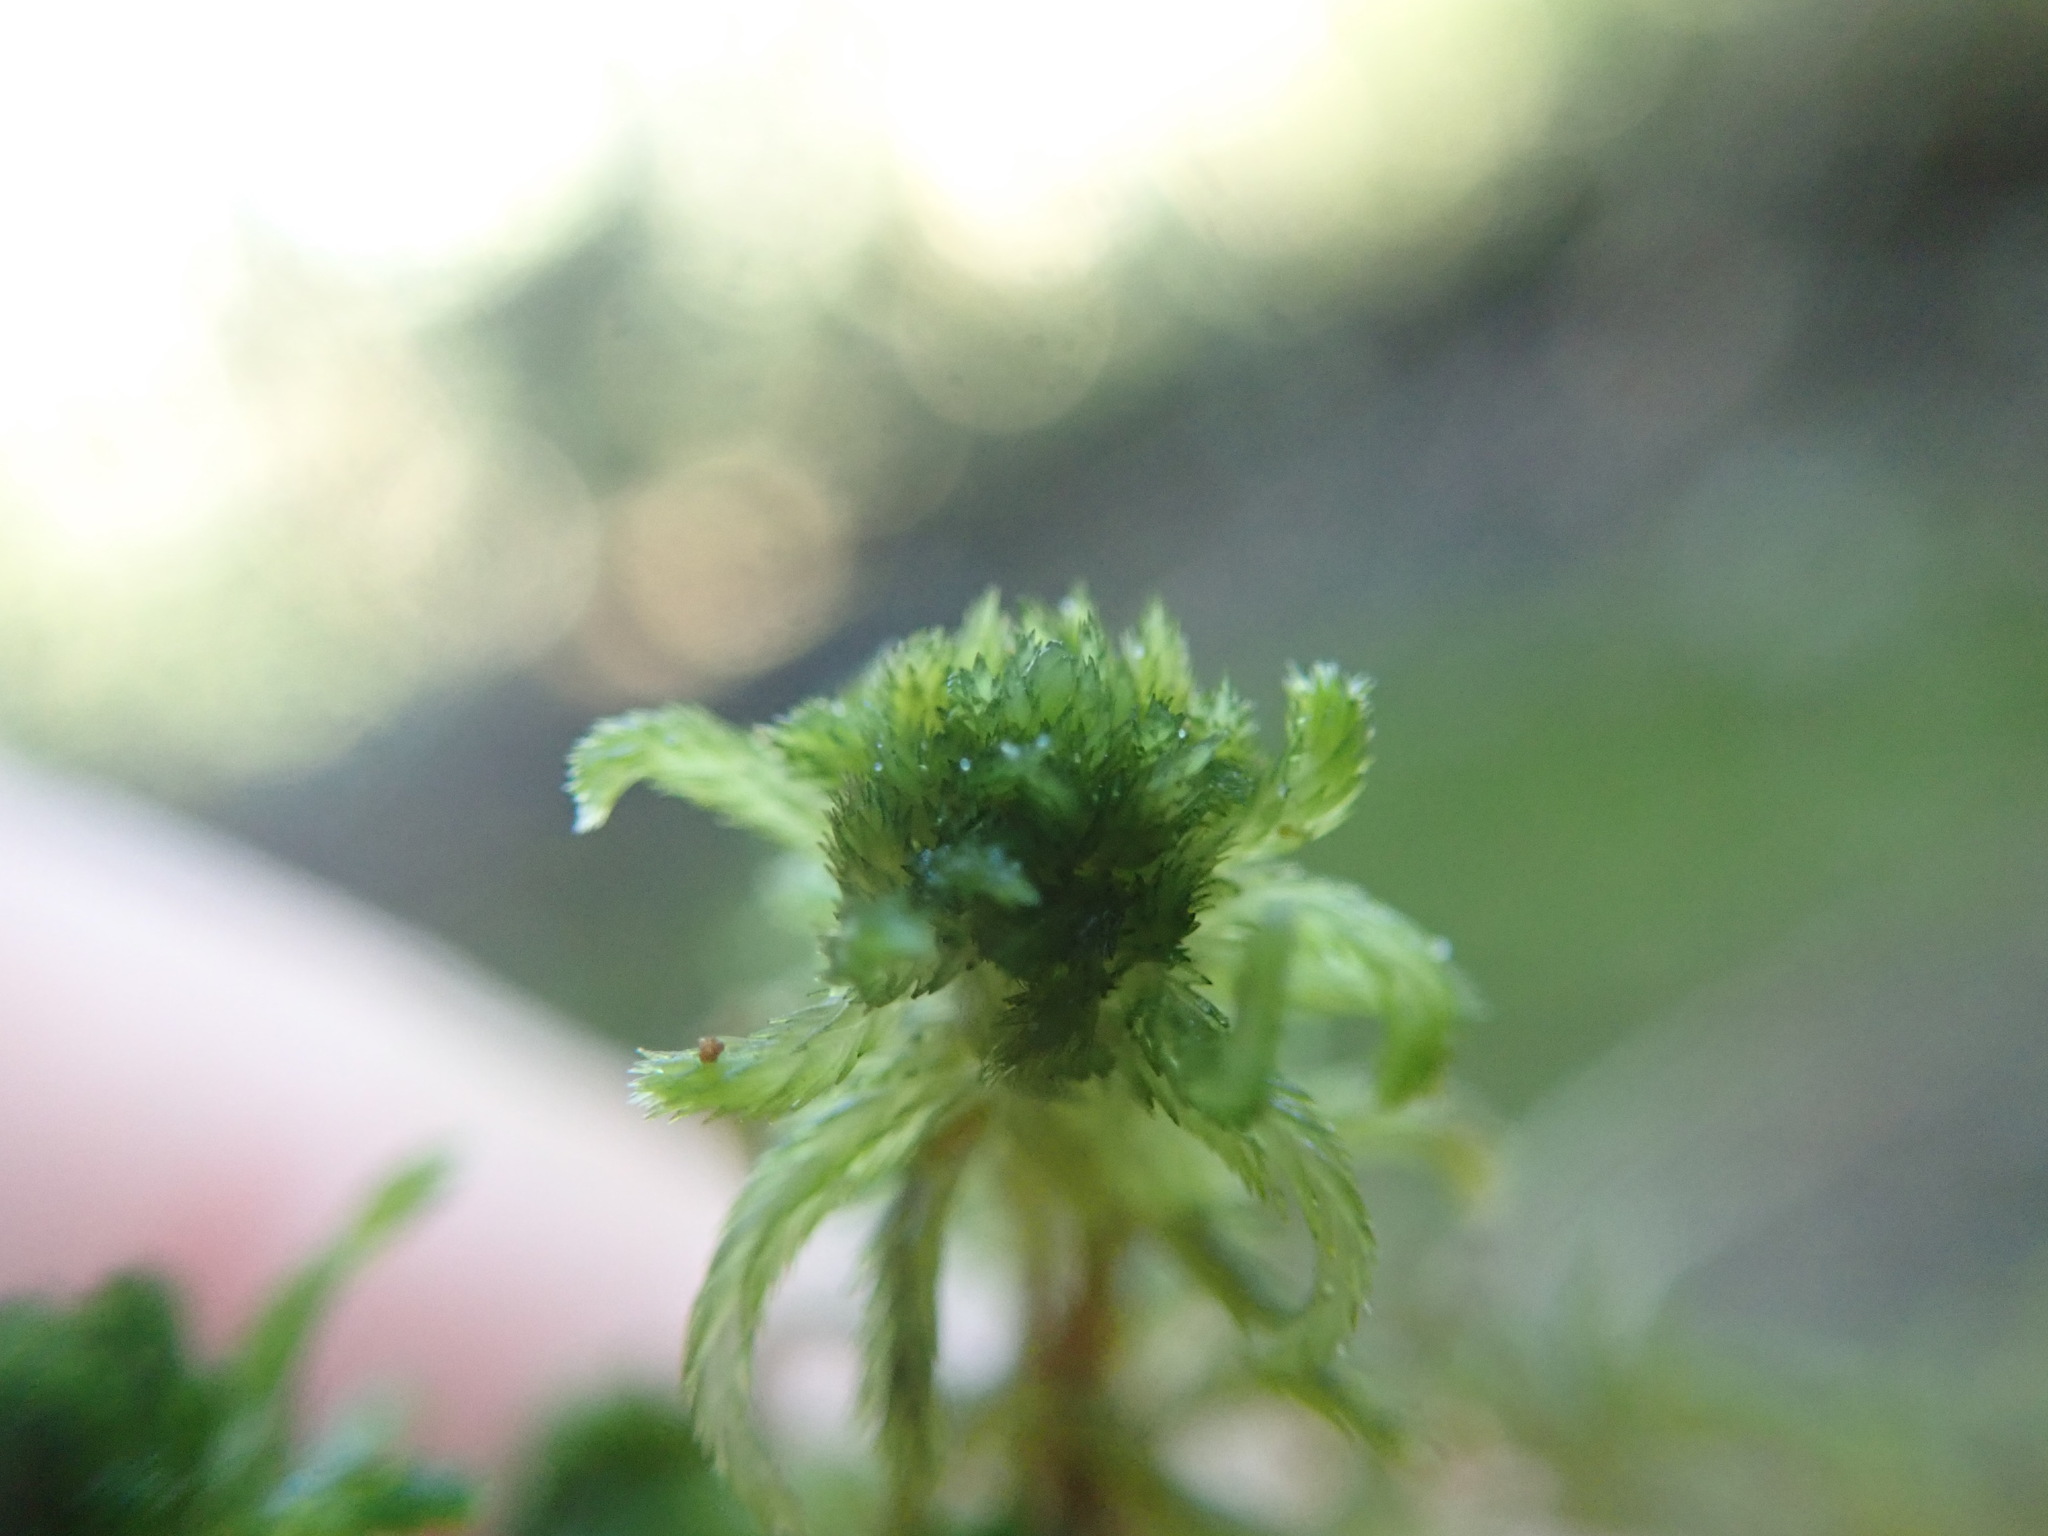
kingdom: Plantae
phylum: Bryophyta
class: Sphagnopsida
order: Sphagnales
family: Sphagnaceae
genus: Sphagnum
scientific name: Sphagnum mendocinum
